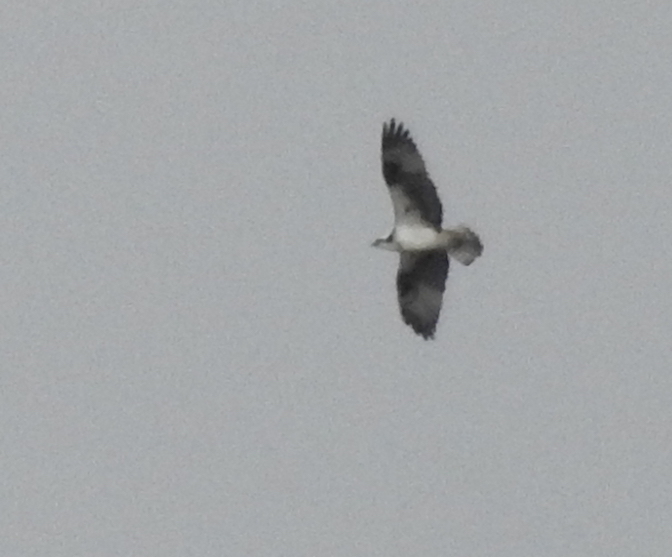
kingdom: Animalia
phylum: Chordata
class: Aves
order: Accipitriformes
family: Pandionidae
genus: Pandion
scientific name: Pandion haliaetus
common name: Osprey
